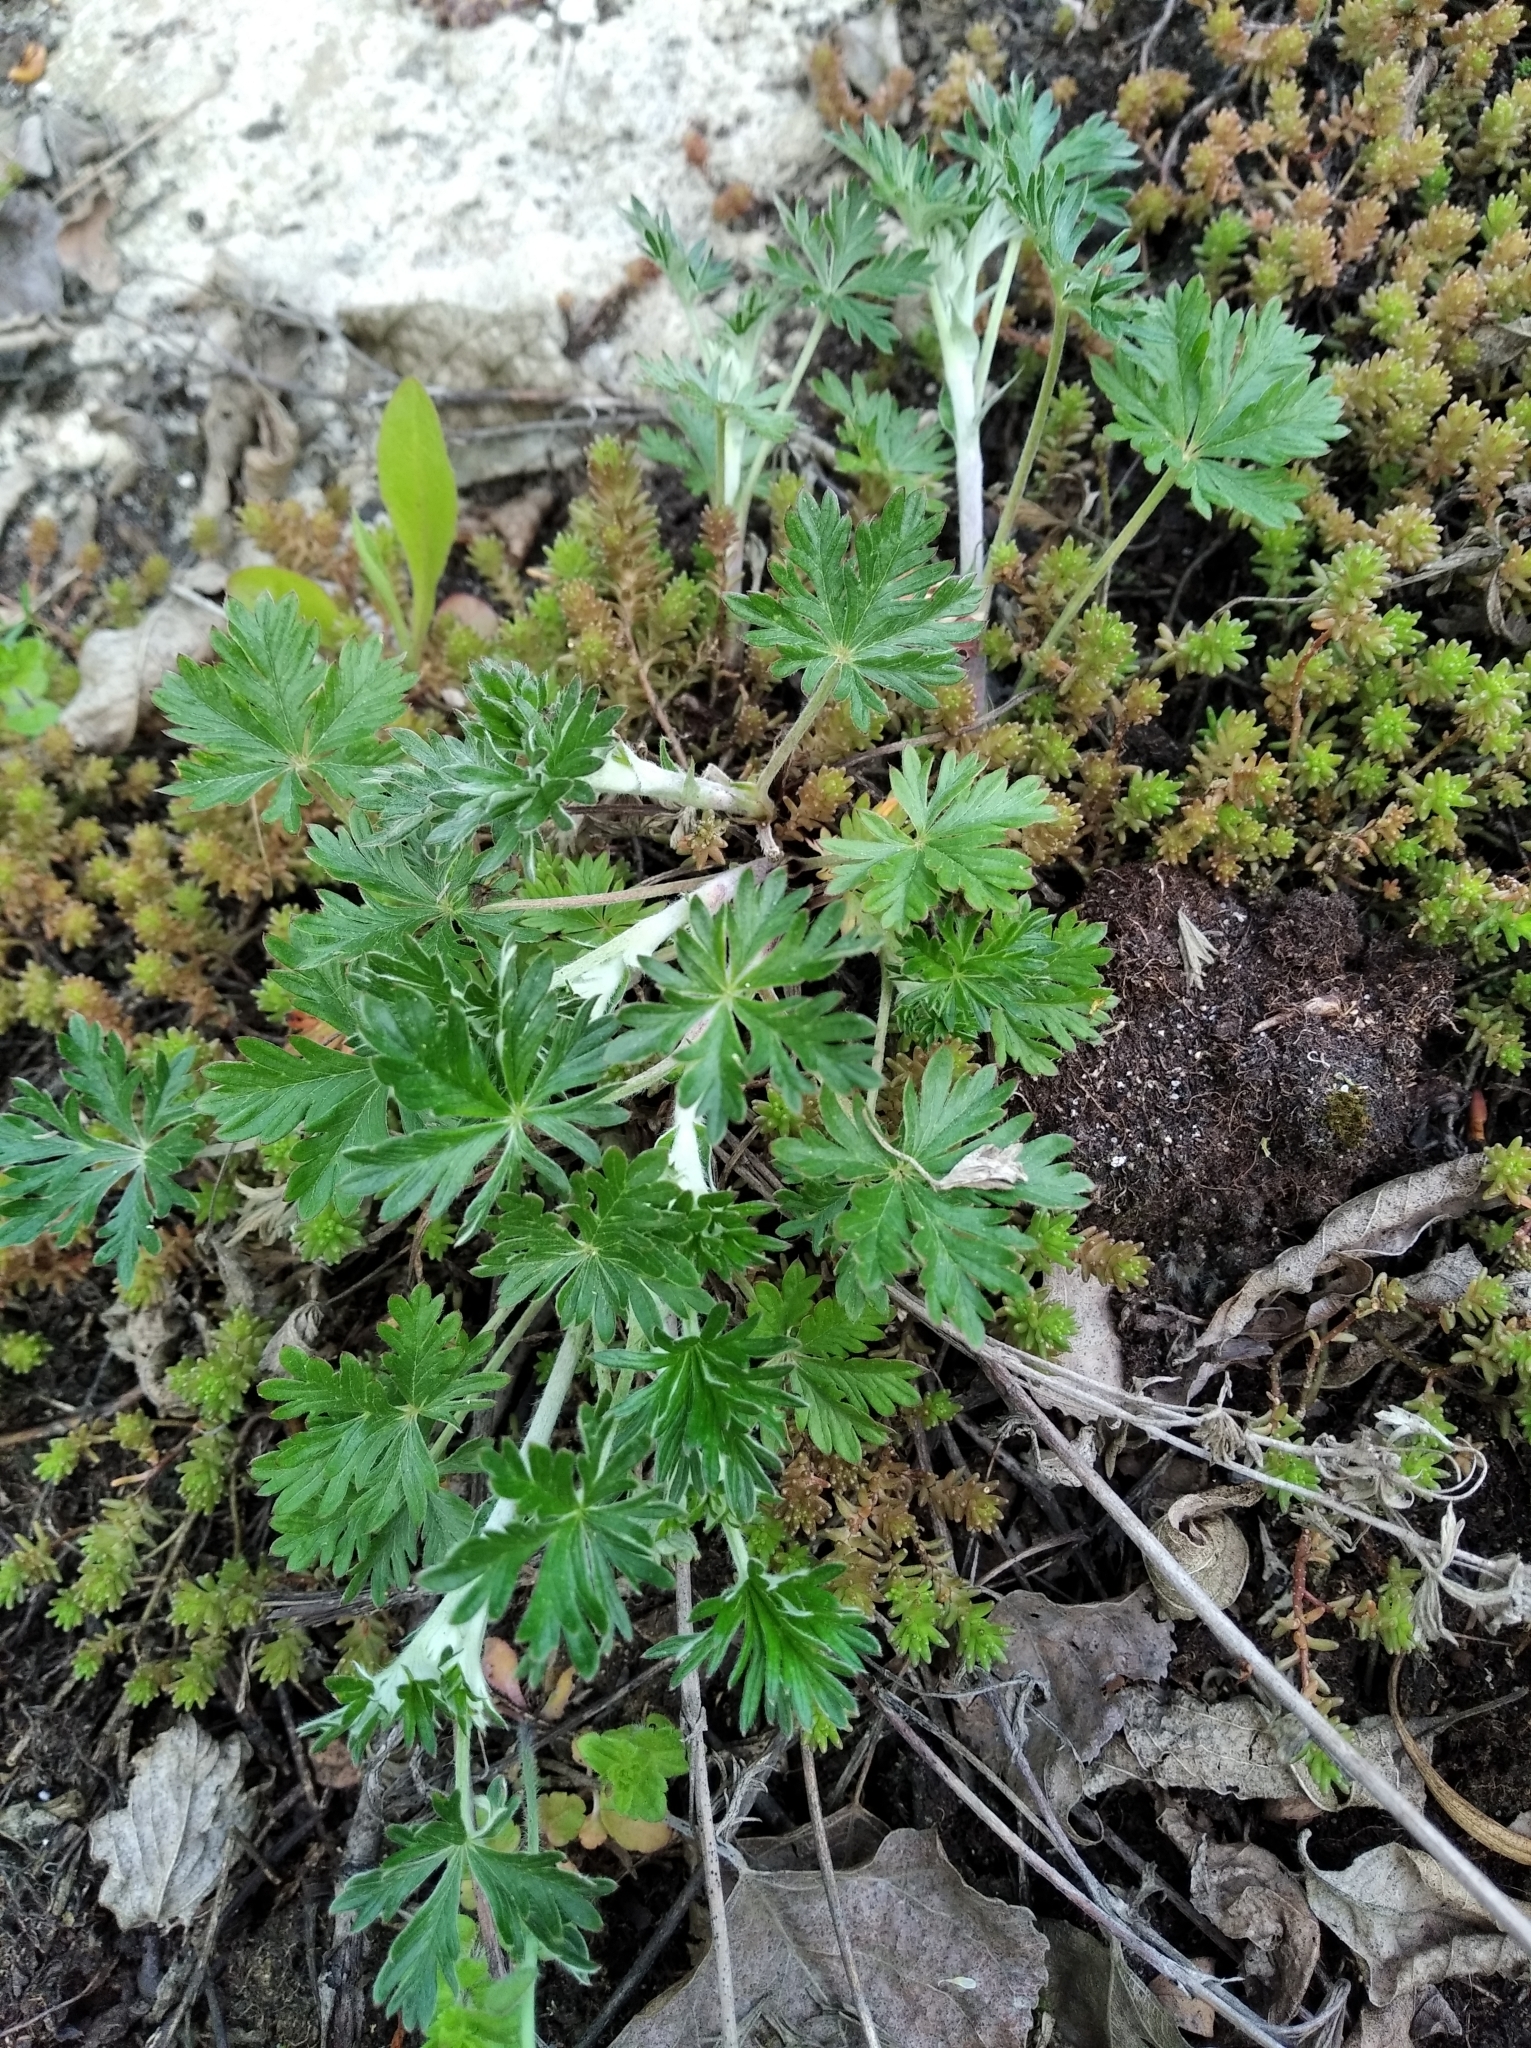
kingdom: Plantae
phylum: Tracheophyta
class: Magnoliopsida
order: Rosales
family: Rosaceae
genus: Potentilla
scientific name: Potentilla argentea
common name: Hoary cinquefoil
